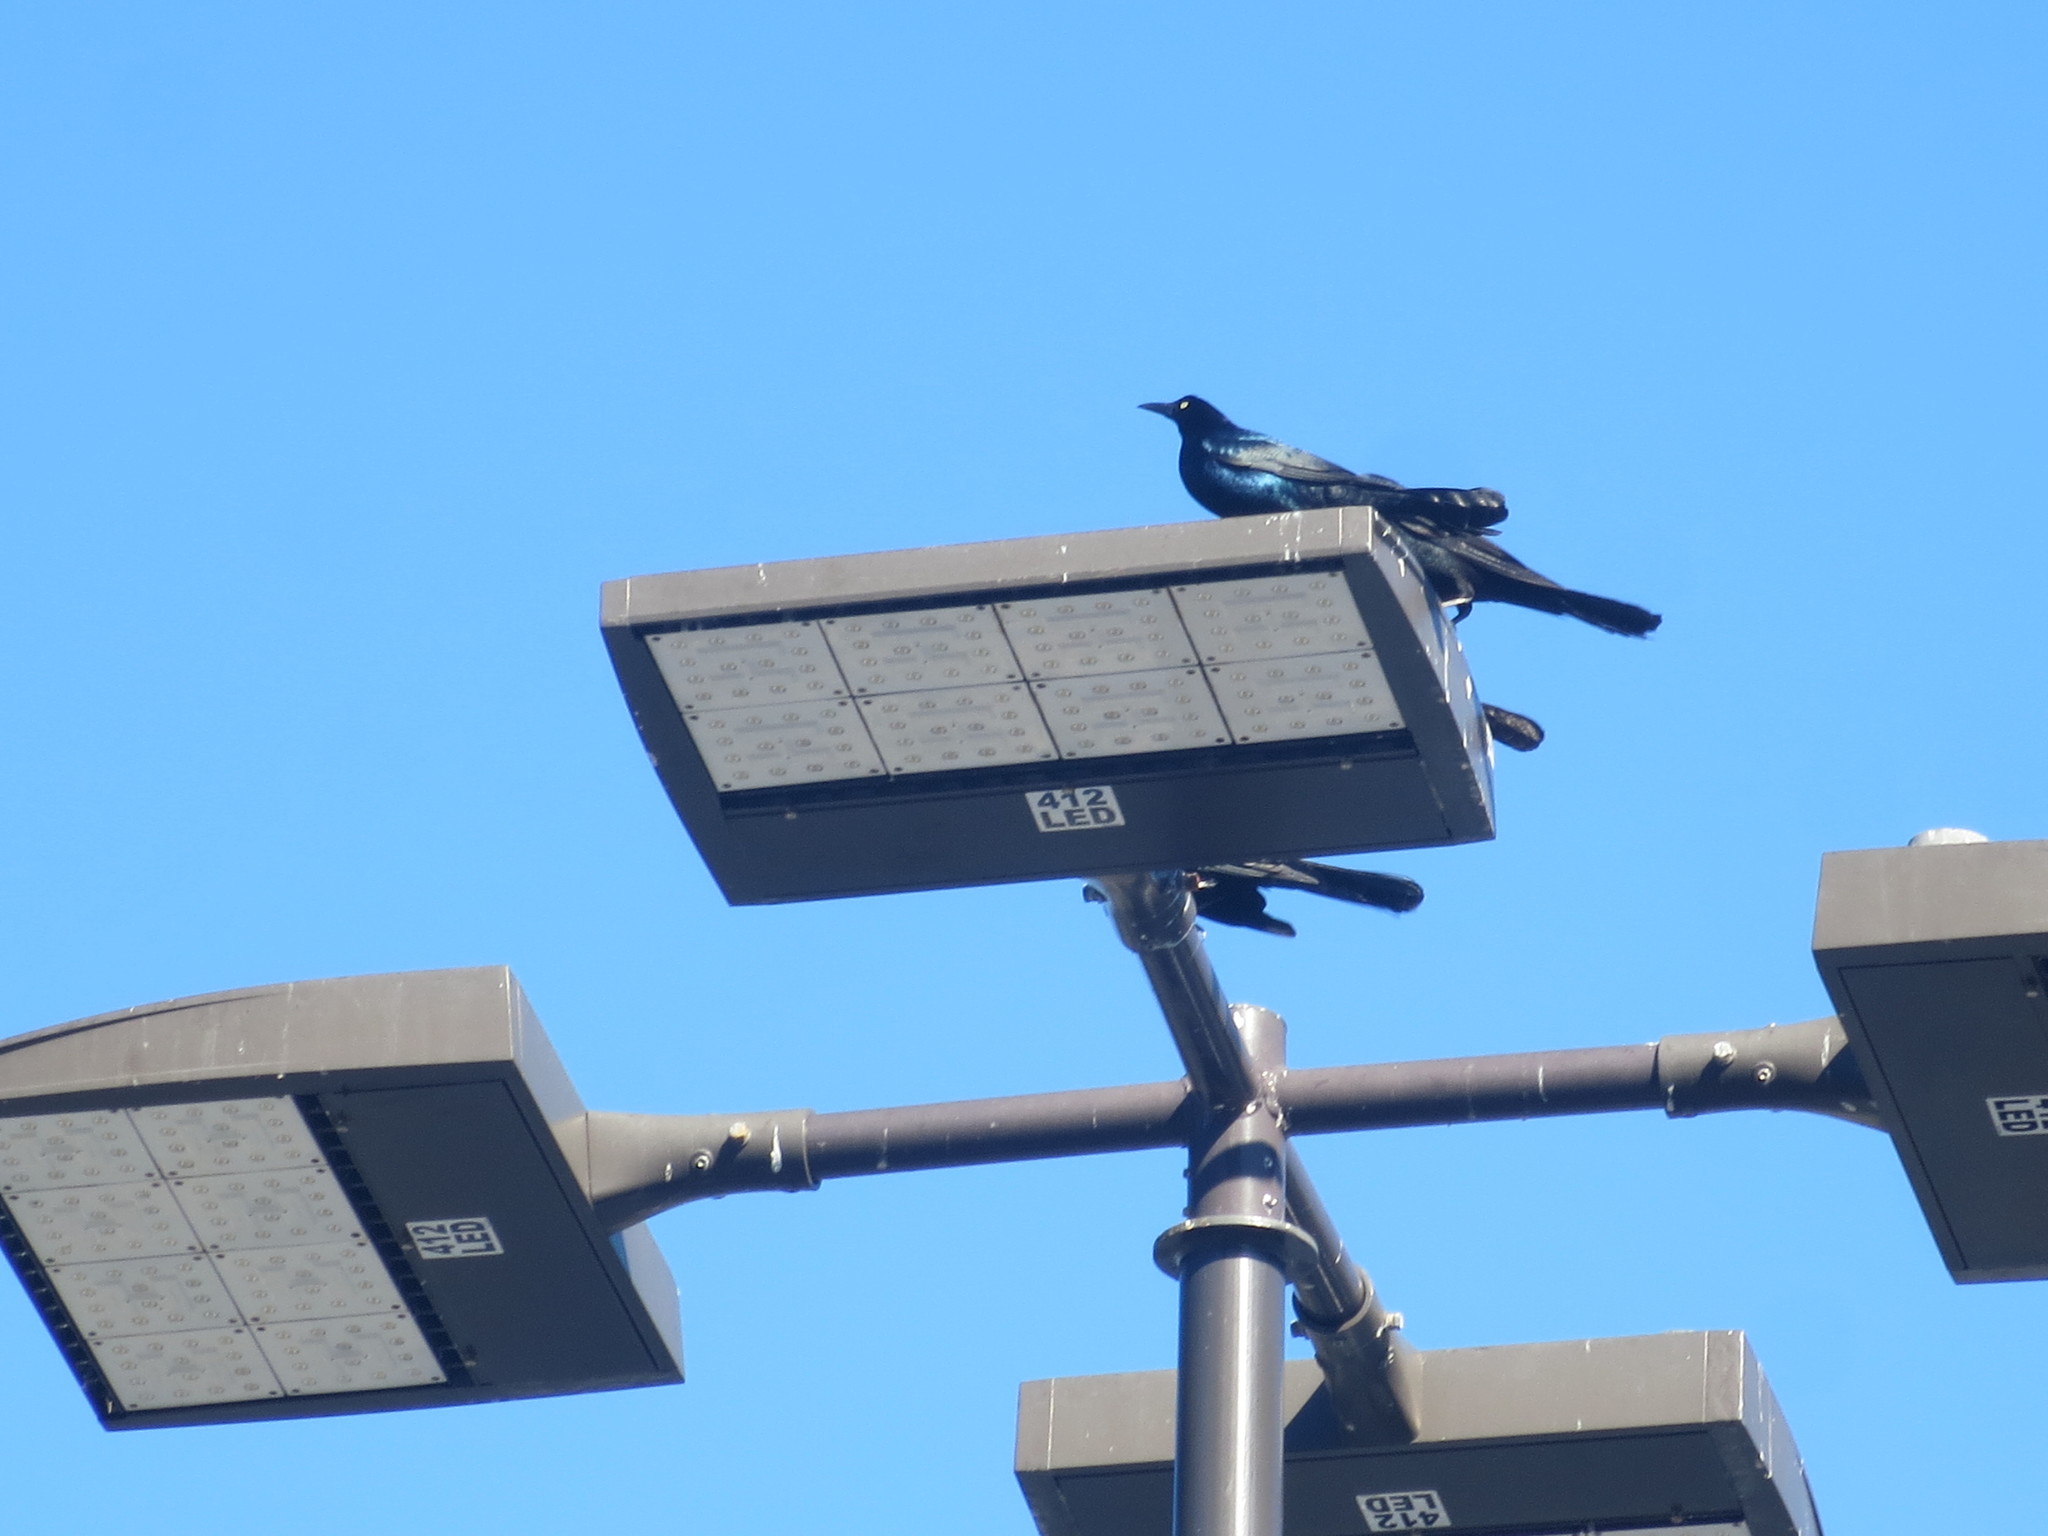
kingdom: Animalia
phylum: Chordata
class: Aves
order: Passeriformes
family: Icteridae
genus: Quiscalus
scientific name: Quiscalus major
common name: Boat-tailed grackle
